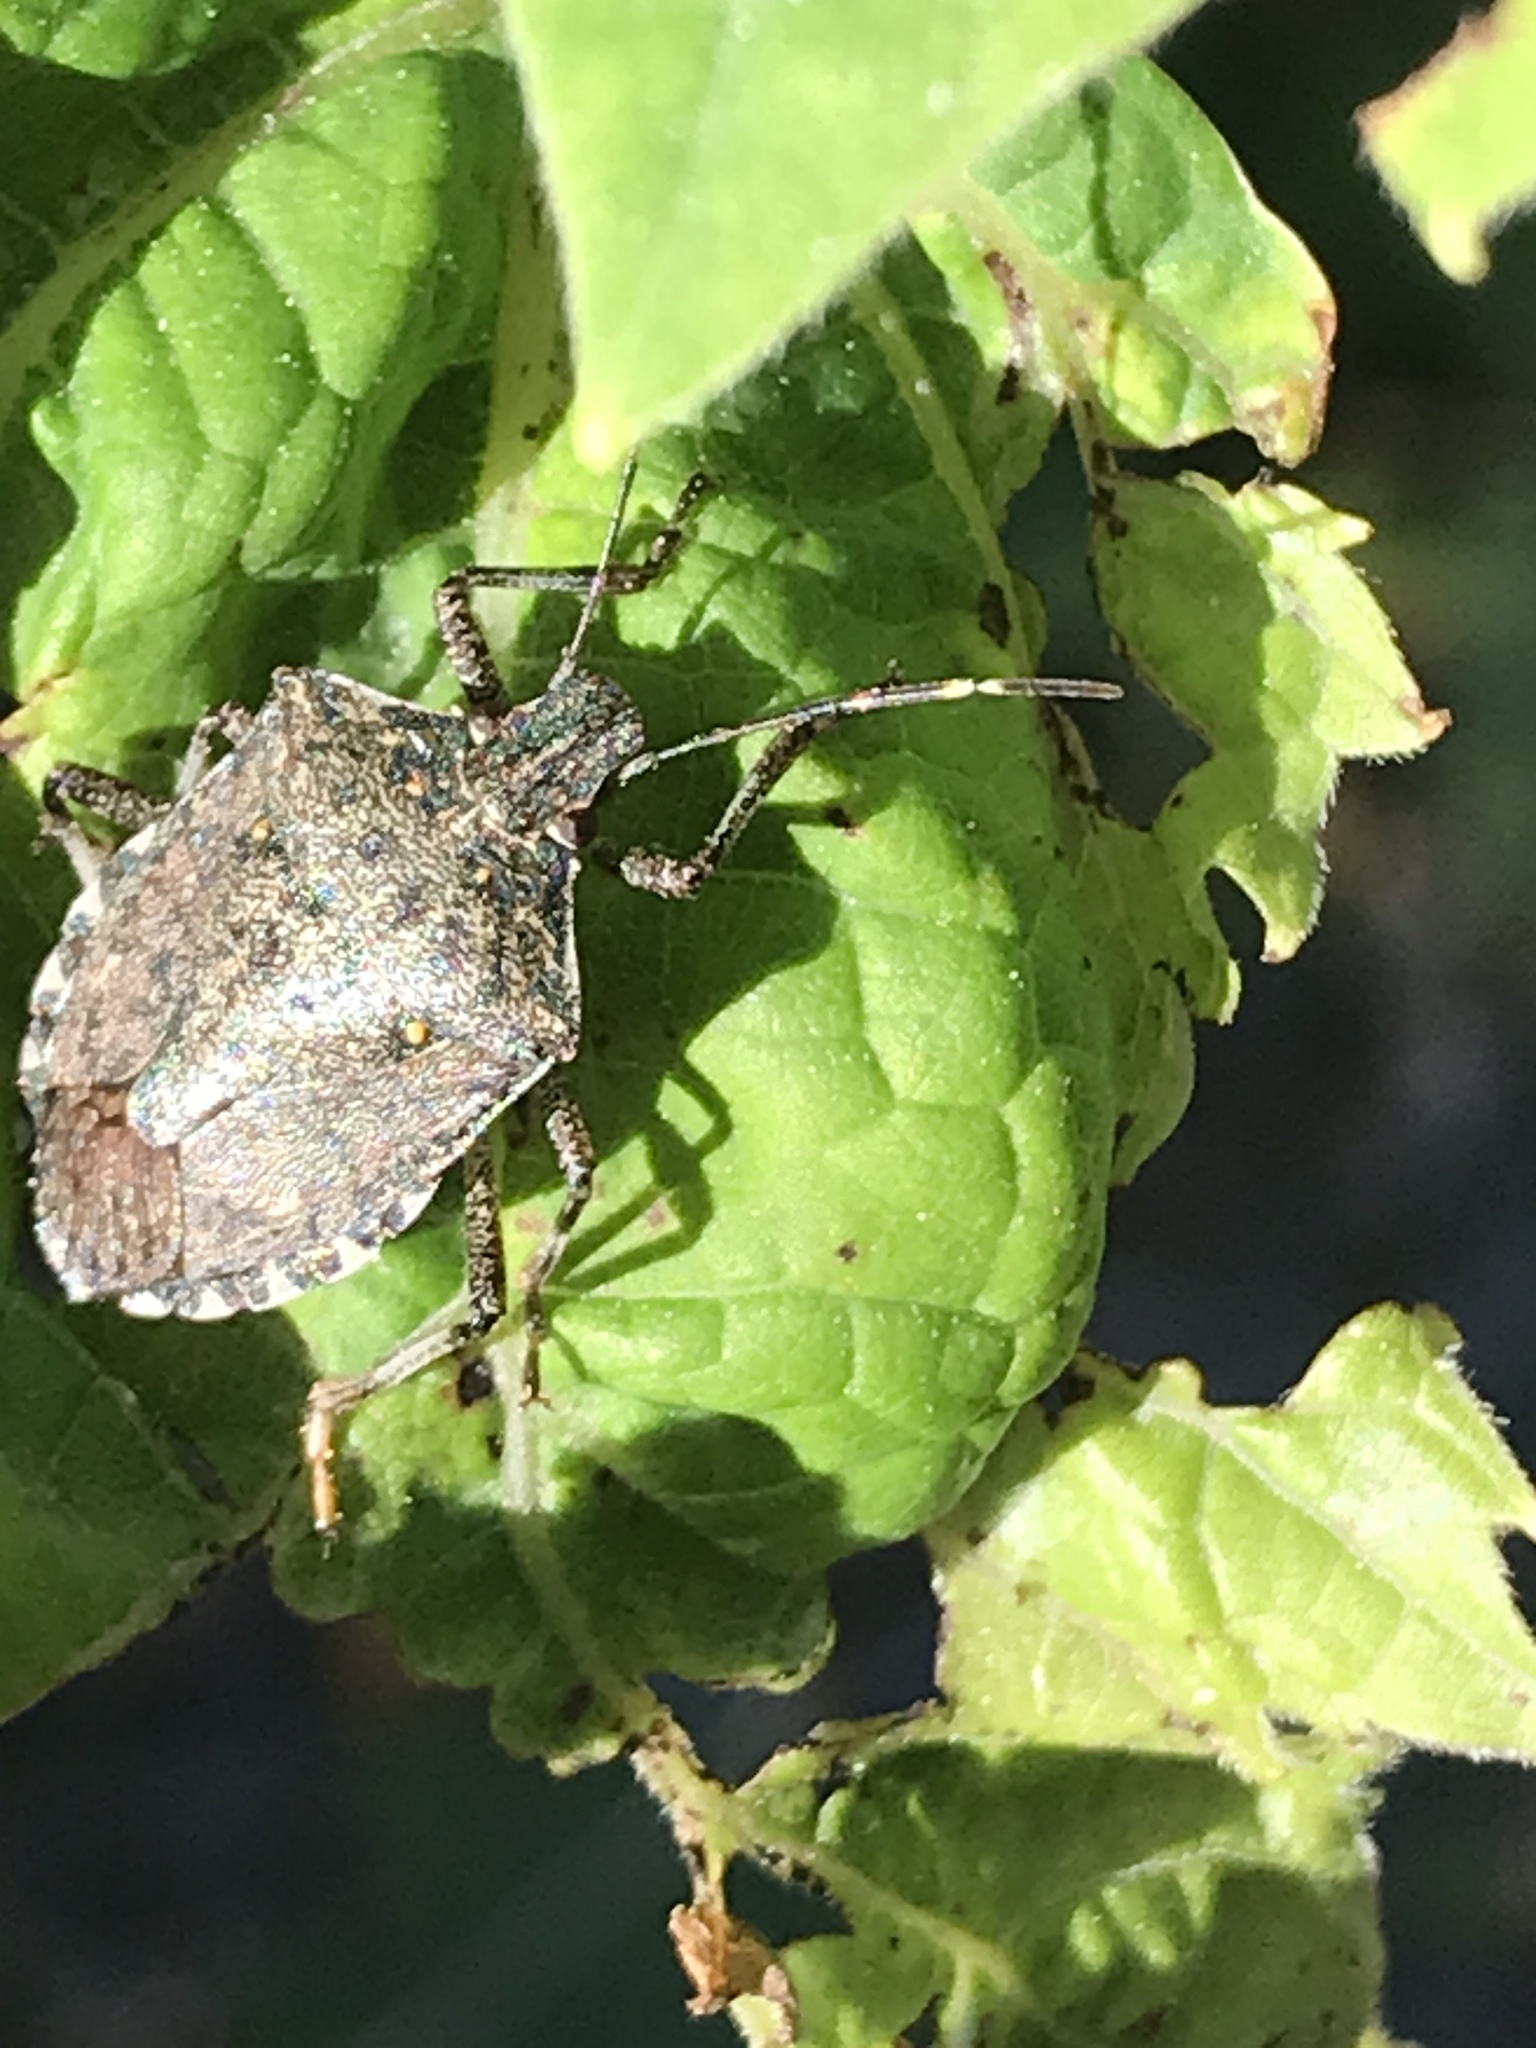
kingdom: Animalia
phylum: Arthropoda
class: Insecta
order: Hemiptera
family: Pentatomidae
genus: Halyomorpha
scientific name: Halyomorpha halys
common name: Brown marmorated stink bug
